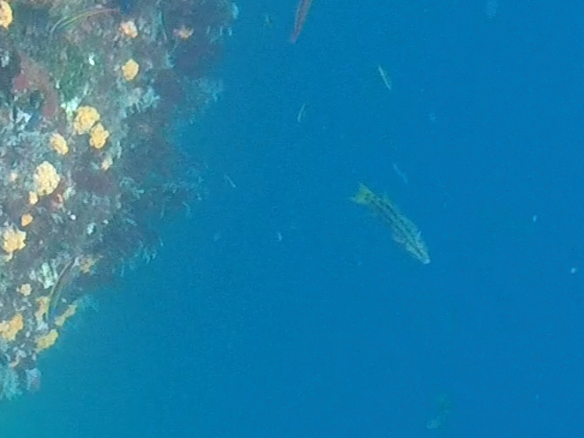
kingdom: Animalia
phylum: Chordata
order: Perciformes
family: Labridae
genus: Bodianus
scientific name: Bodianus diplotaenia
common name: Mexican hogfish
